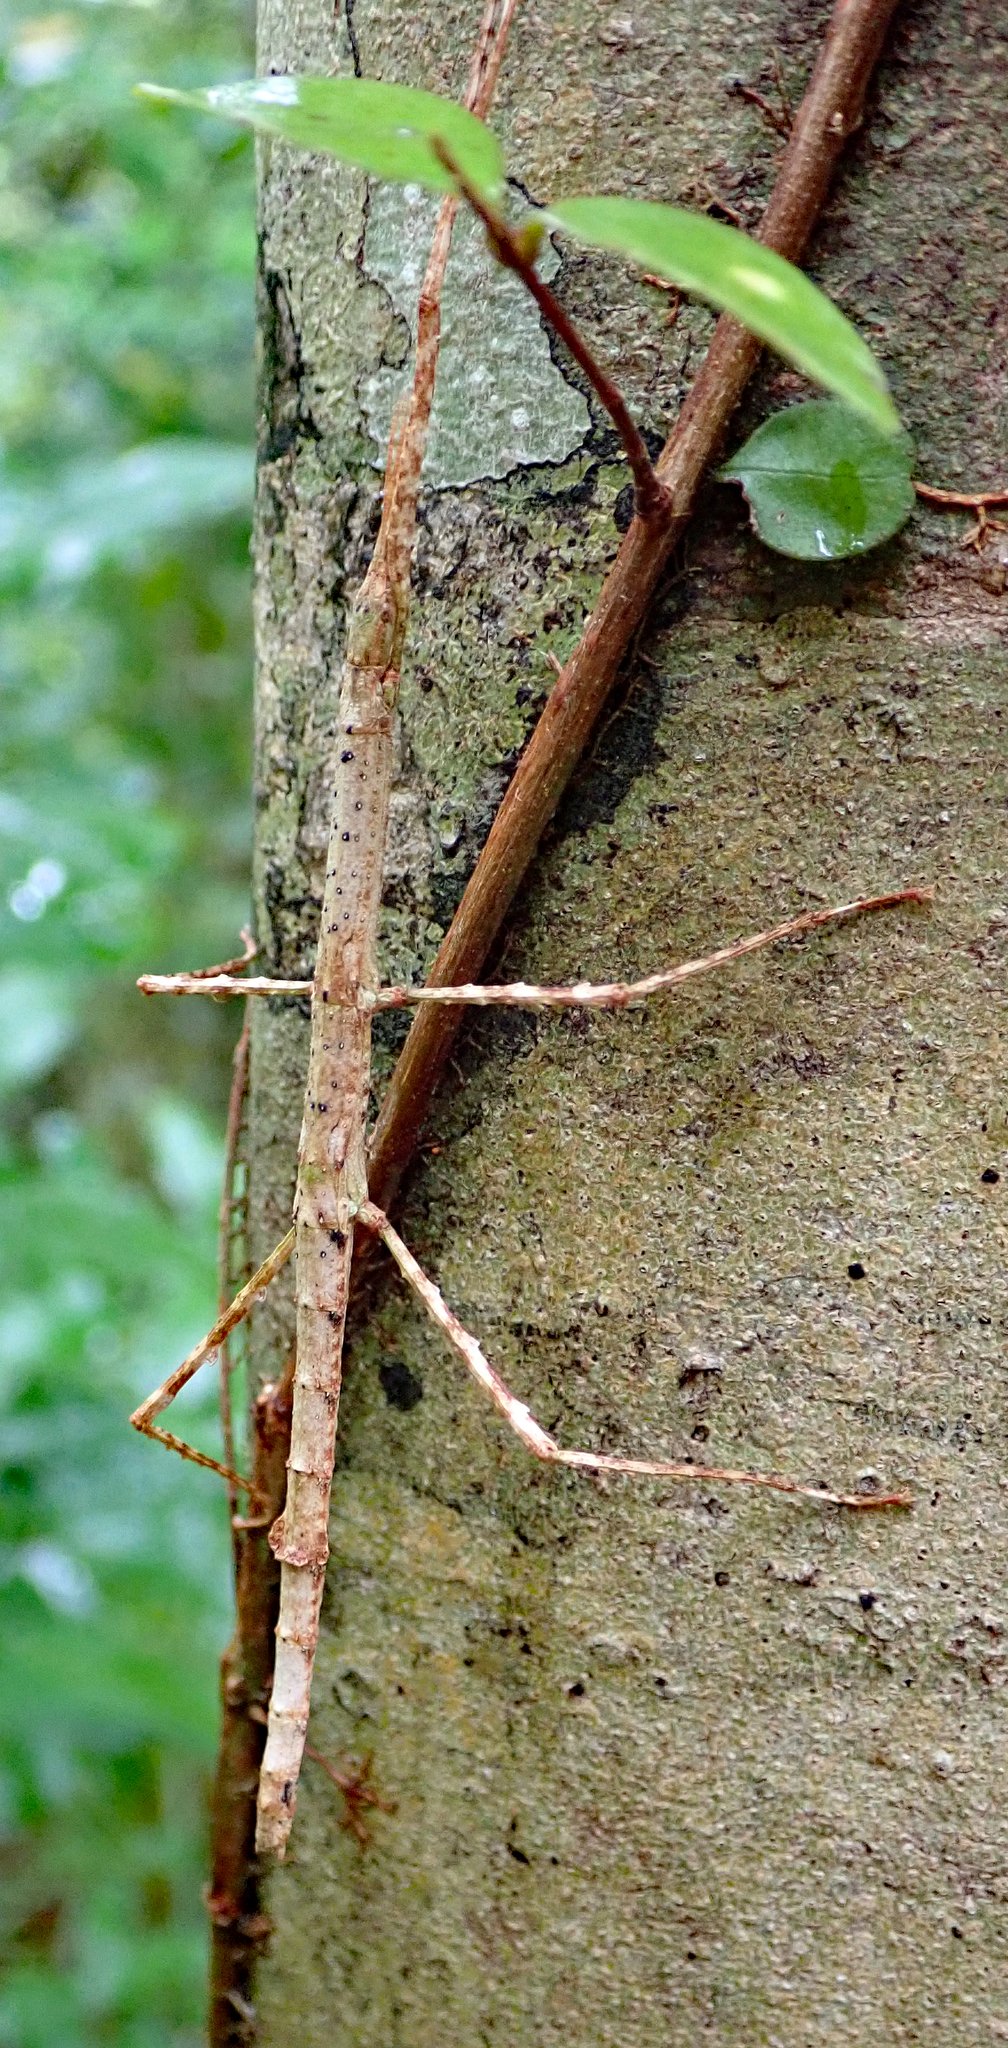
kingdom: Animalia
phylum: Arthropoda
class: Insecta
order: Phasmida
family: Phasmatidae
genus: Asteliaphasma
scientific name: Asteliaphasma jucundum
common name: The kauri forest stick insect
